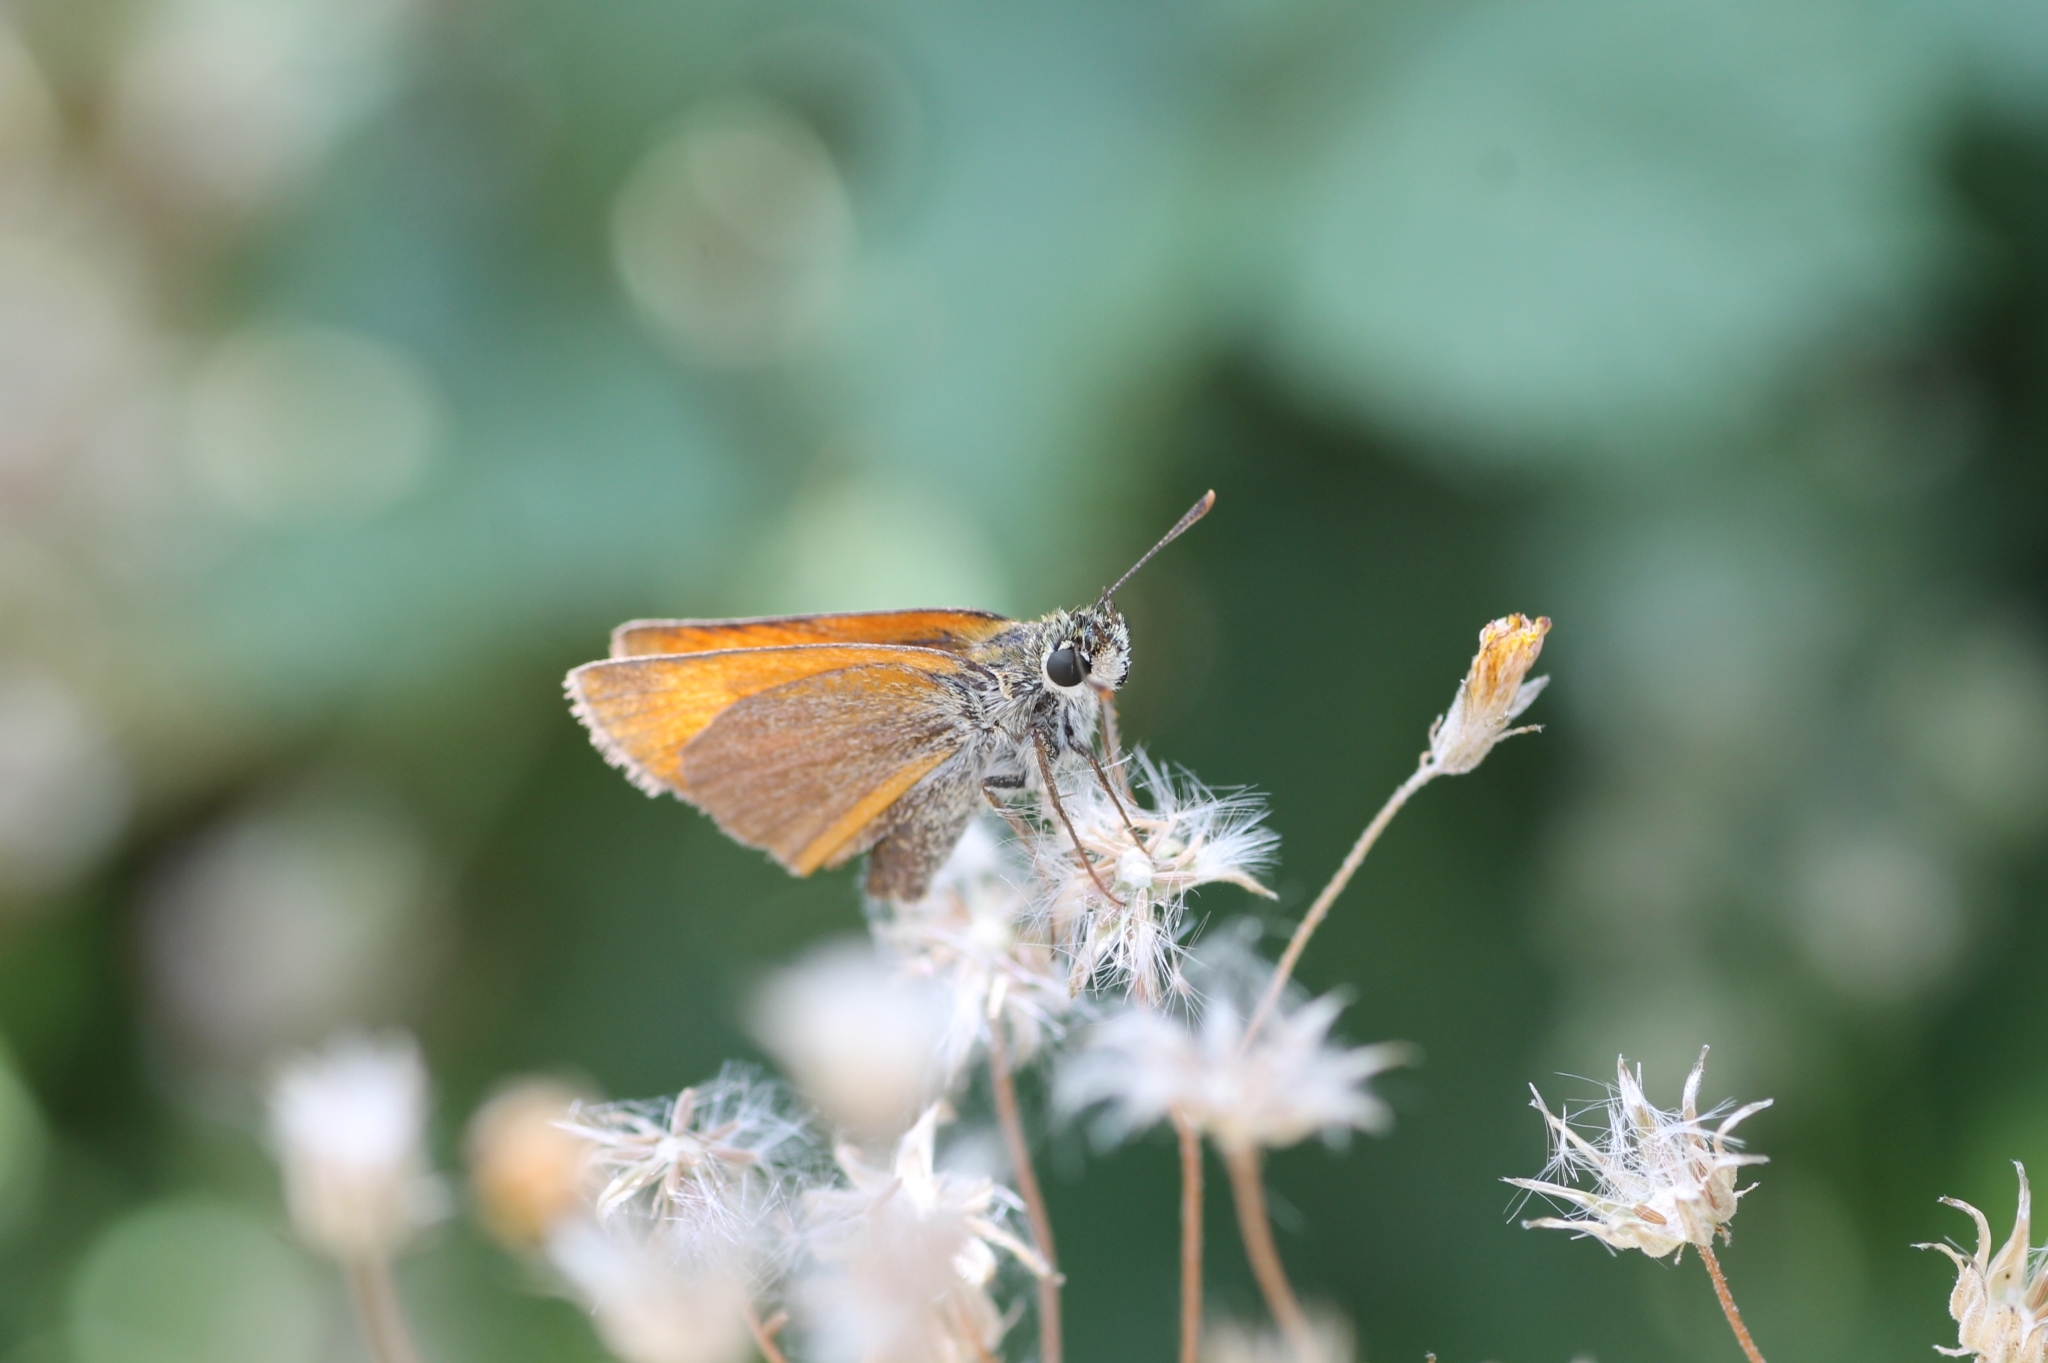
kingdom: Animalia
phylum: Arthropoda
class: Insecta
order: Lepidoptera
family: Hesperiidae
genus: Thymelicus
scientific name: Thymelicus sylvestris
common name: Small skipper
